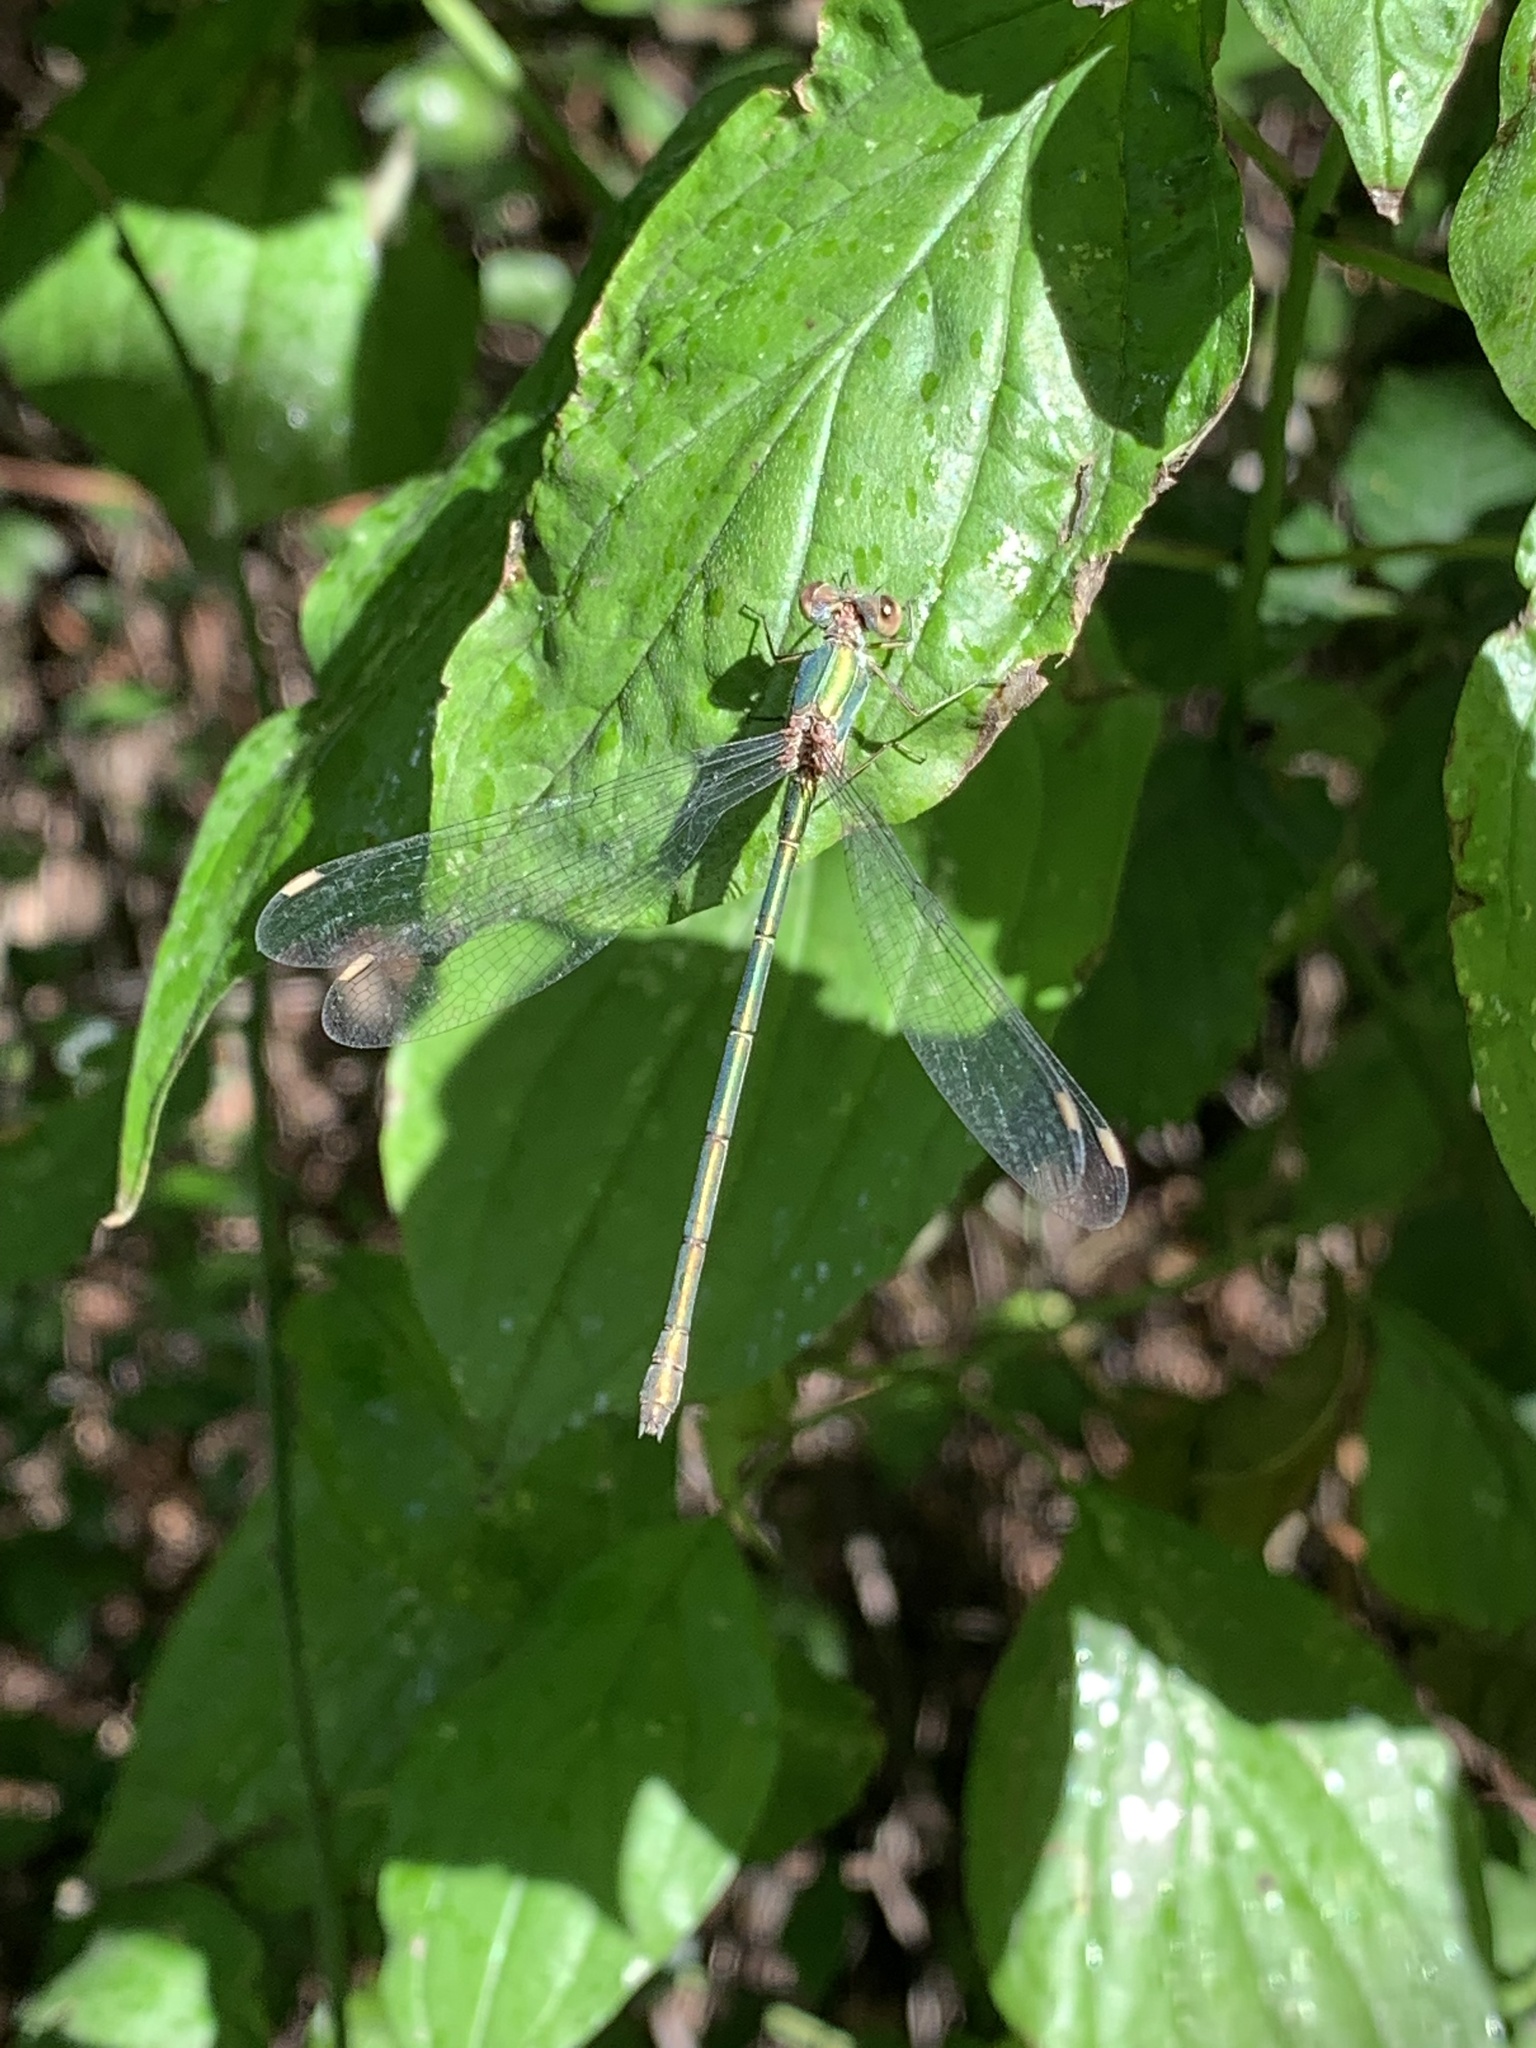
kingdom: Animalia
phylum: Arthropoda
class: Insecta
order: Odonata
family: Lestidae
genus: Chalcolestes
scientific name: Chalcolestes viridis
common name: Green emerald damselfly
